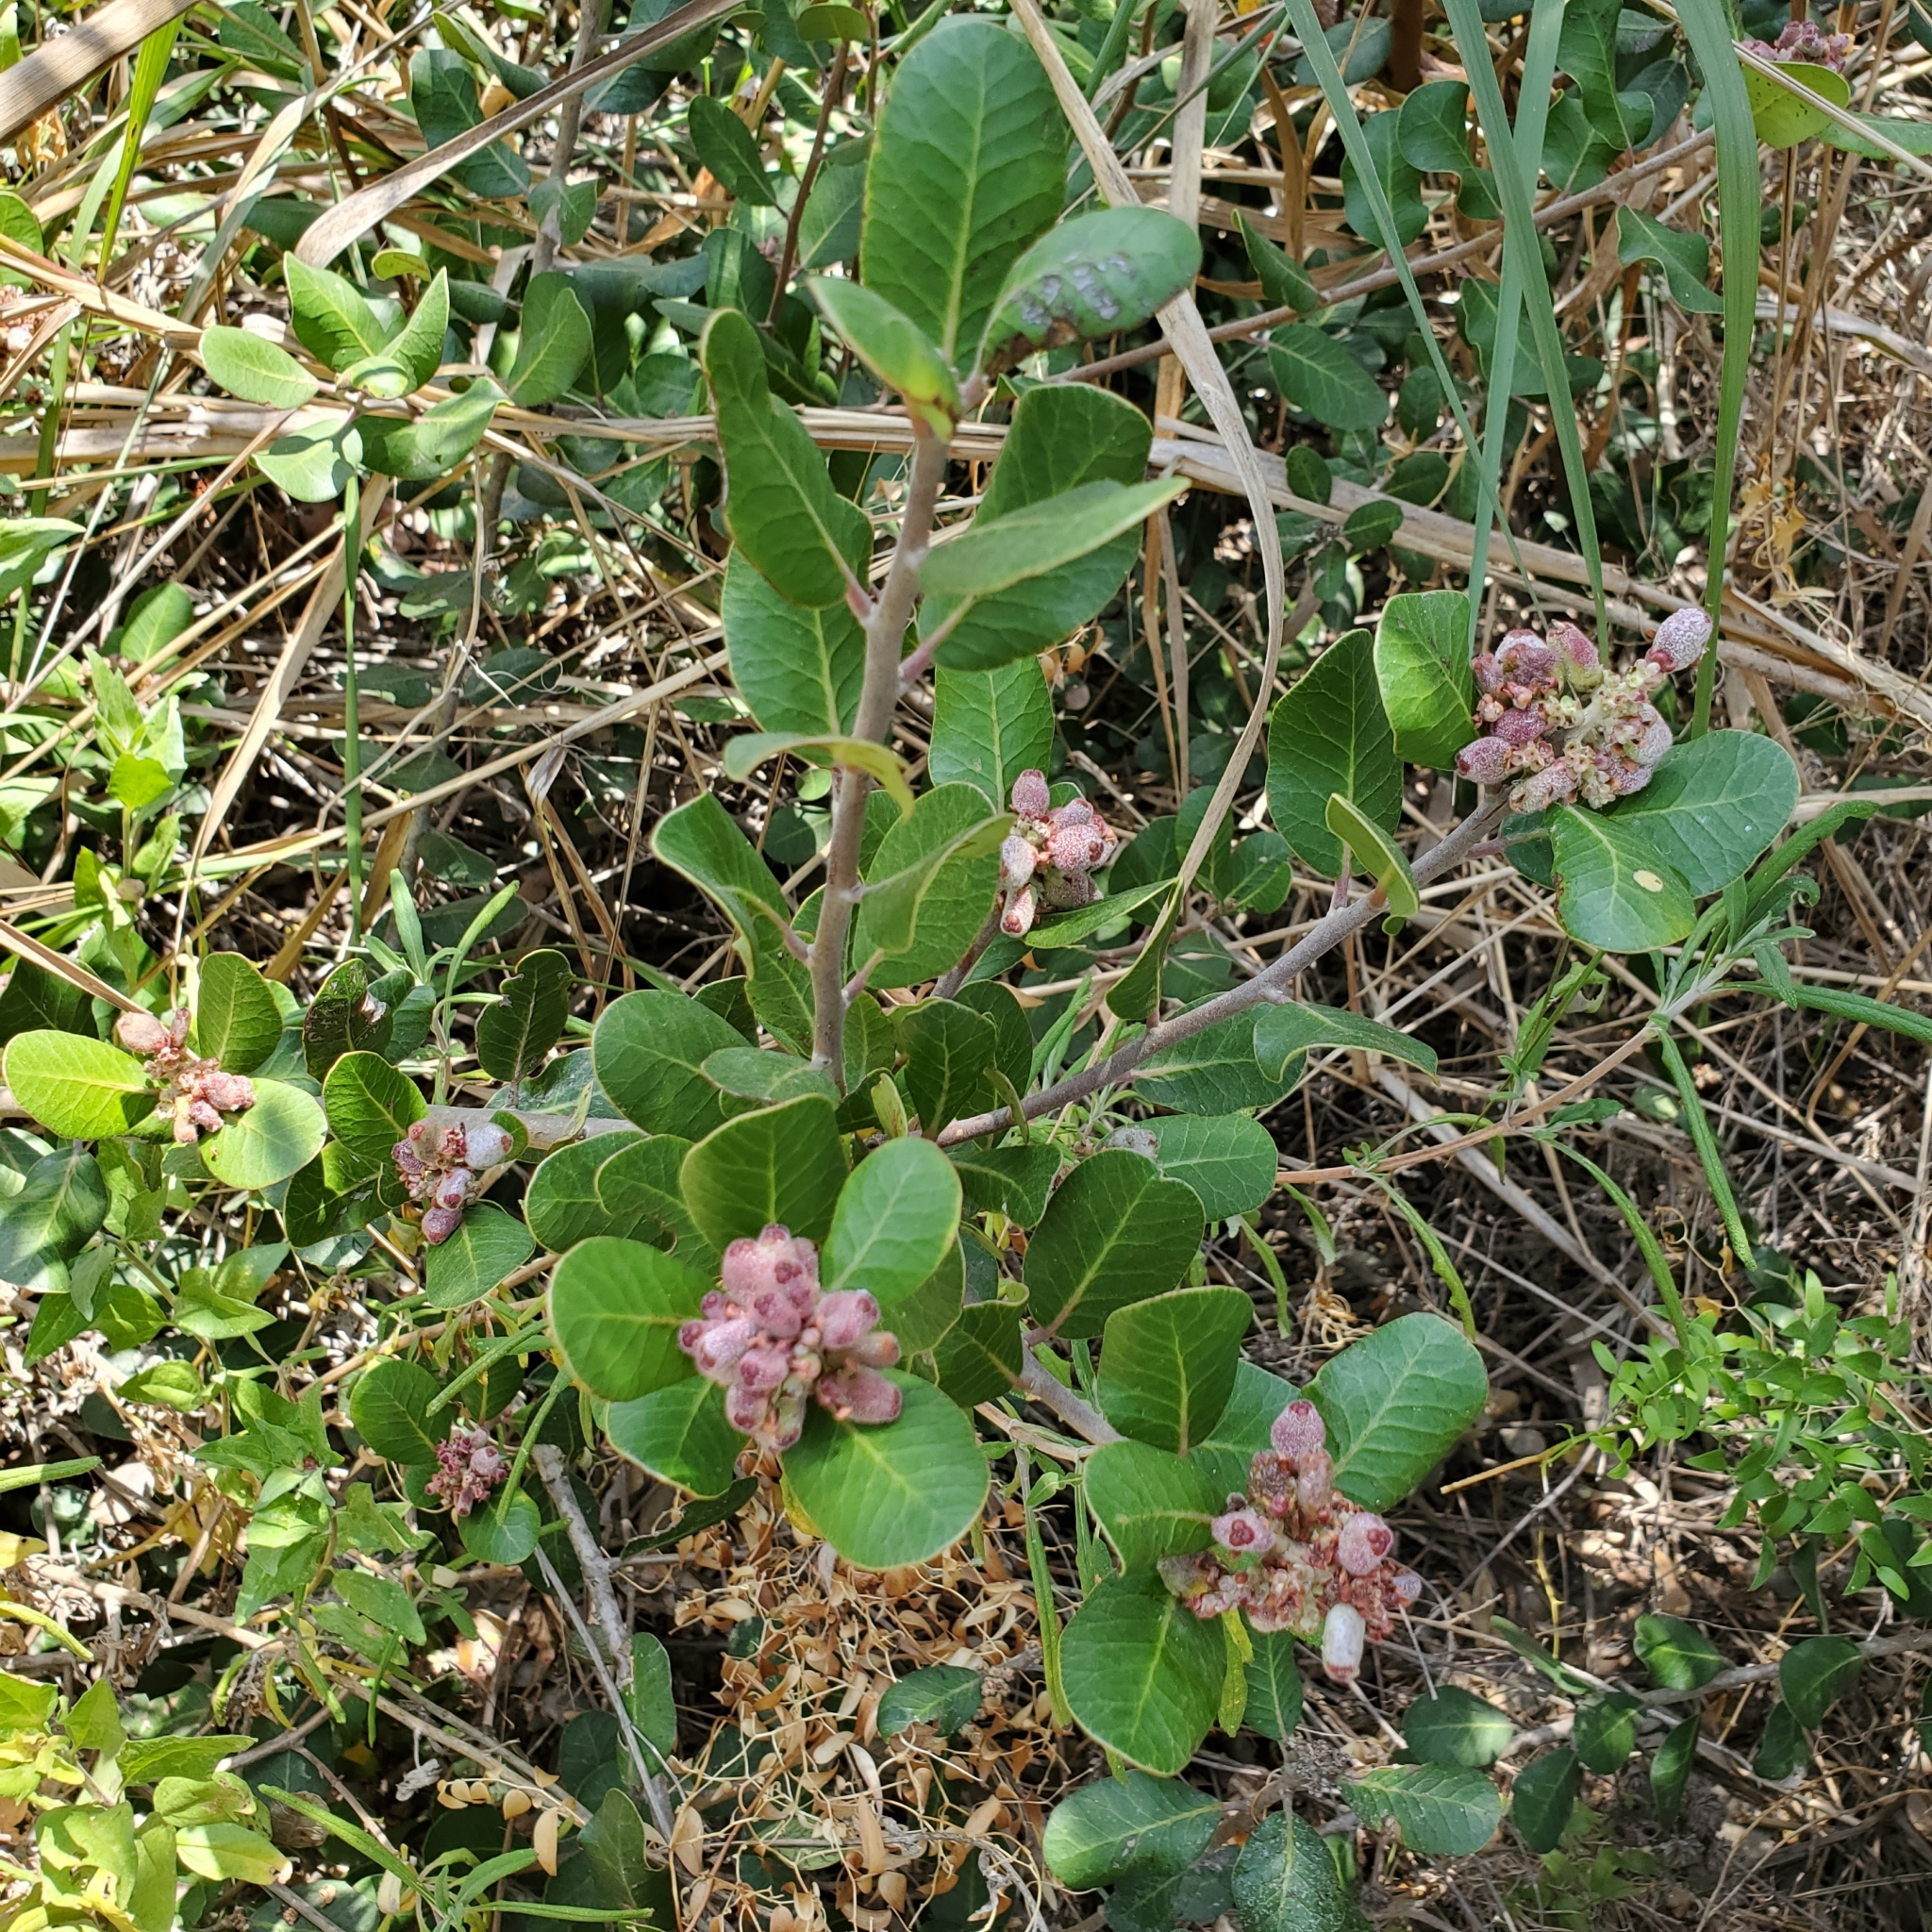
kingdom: Plantae
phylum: Tracheophyta
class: Magnoliopsida
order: Sapindales
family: Anacardiaceae
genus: Rhus
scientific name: Rhus integrifolia
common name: Lemonade sumac
